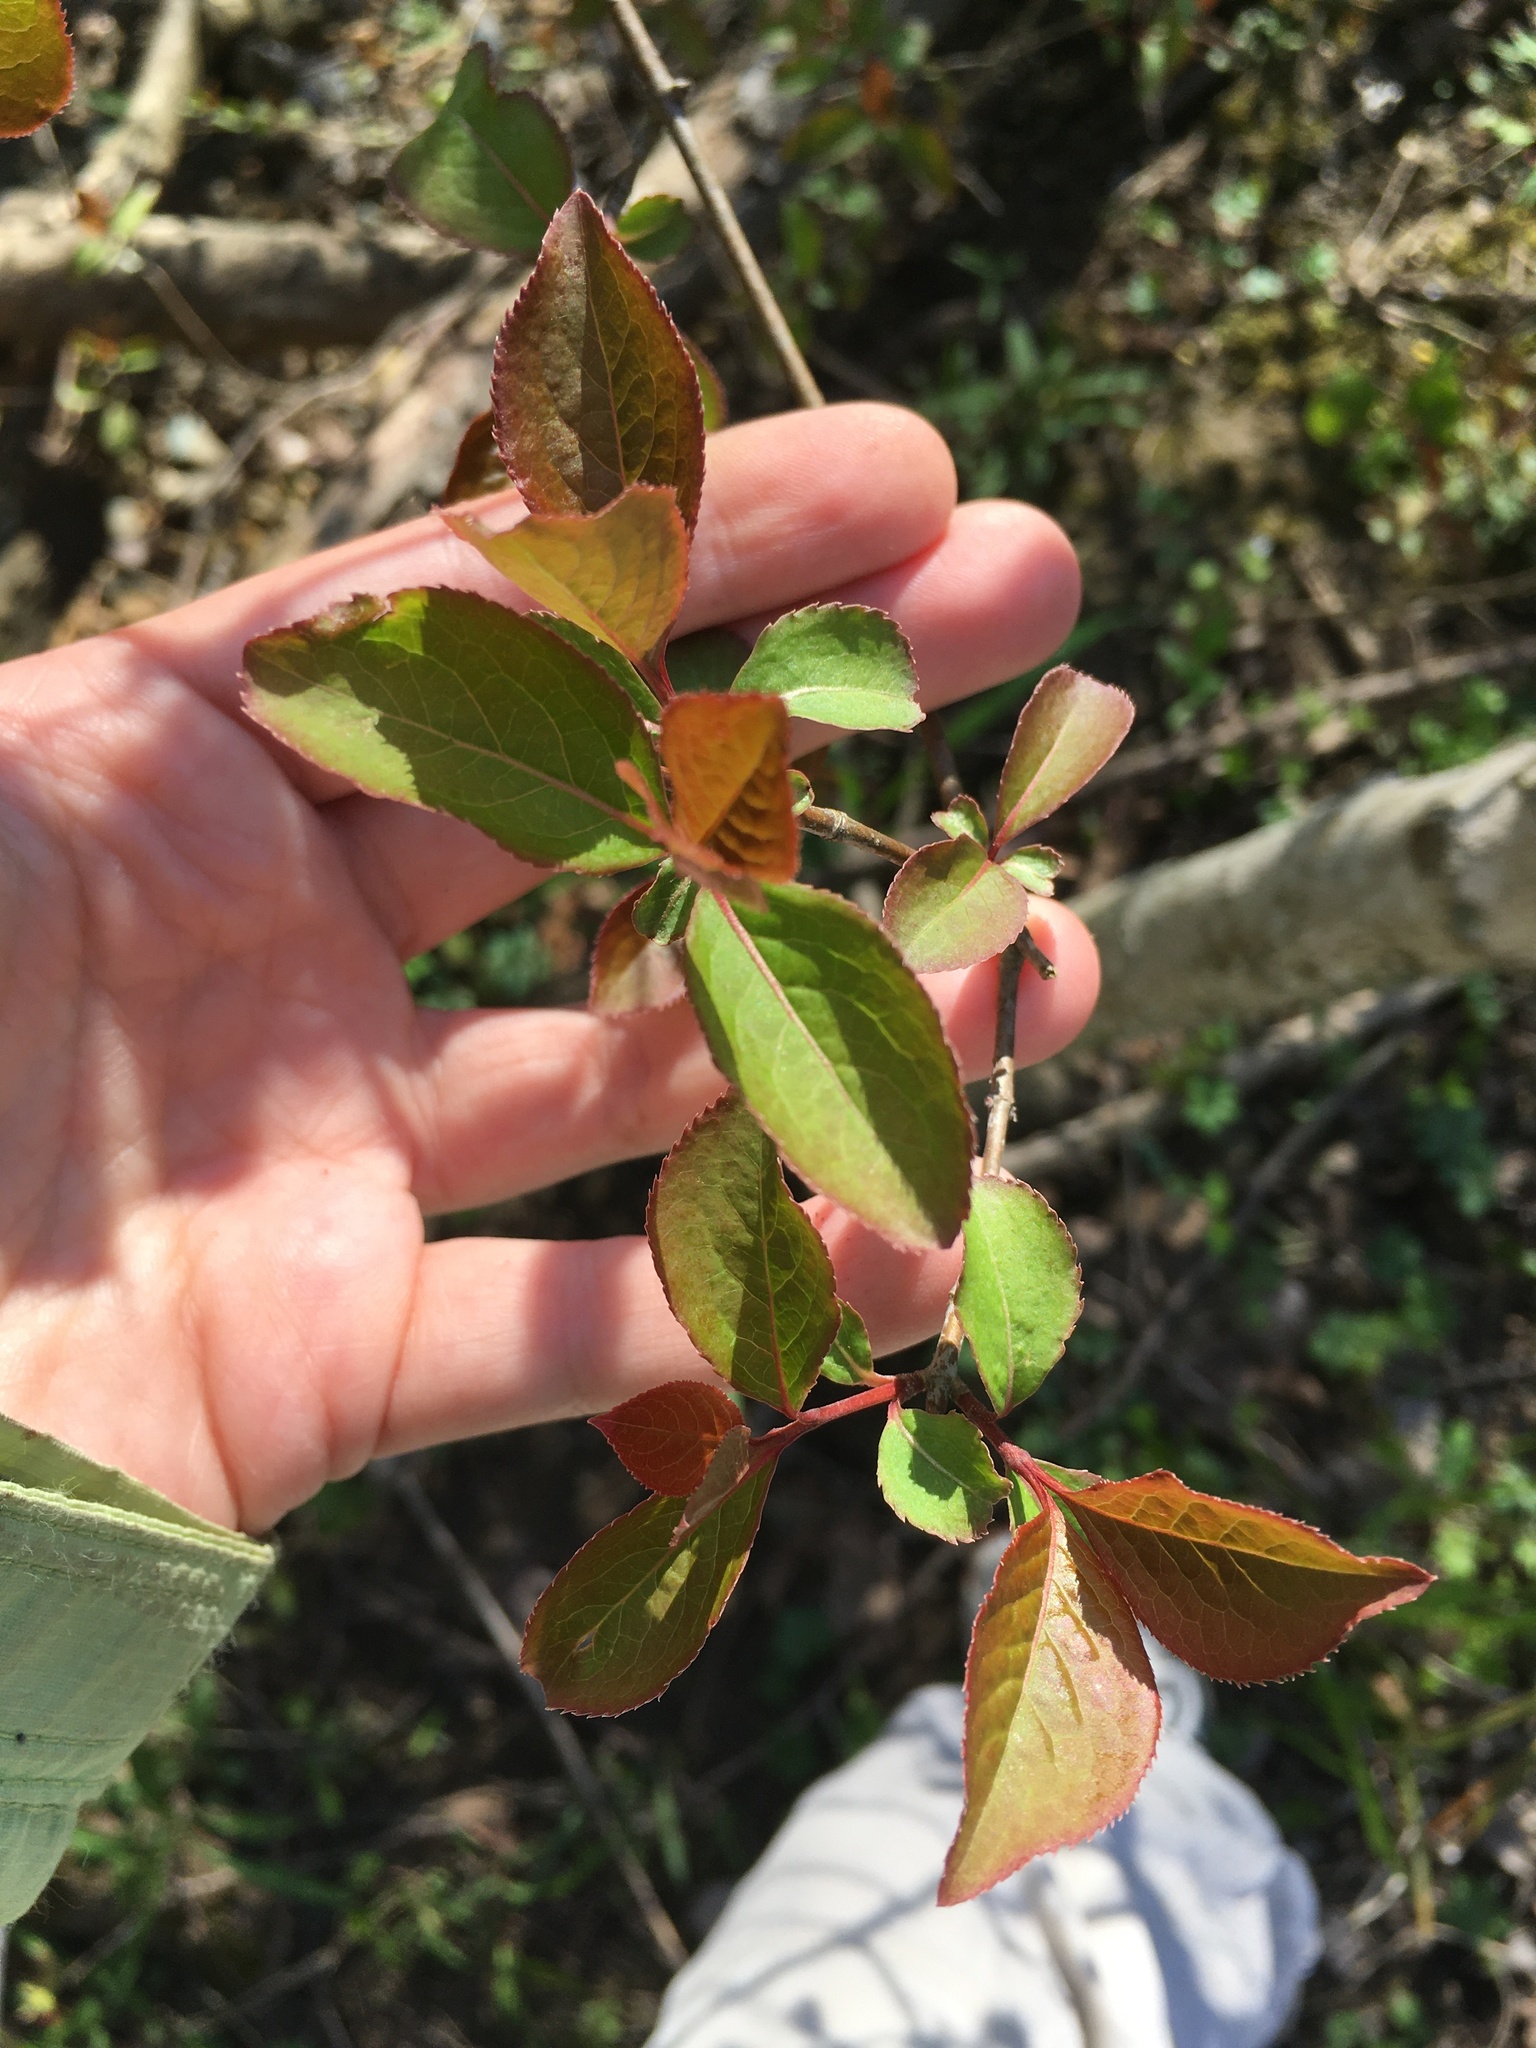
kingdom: Plantae
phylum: Tracheophyta
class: Magnoliopsida
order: Dipsacales
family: Viburnaceae
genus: Viburnum
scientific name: Viburnum prunifolium
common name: Black haw
